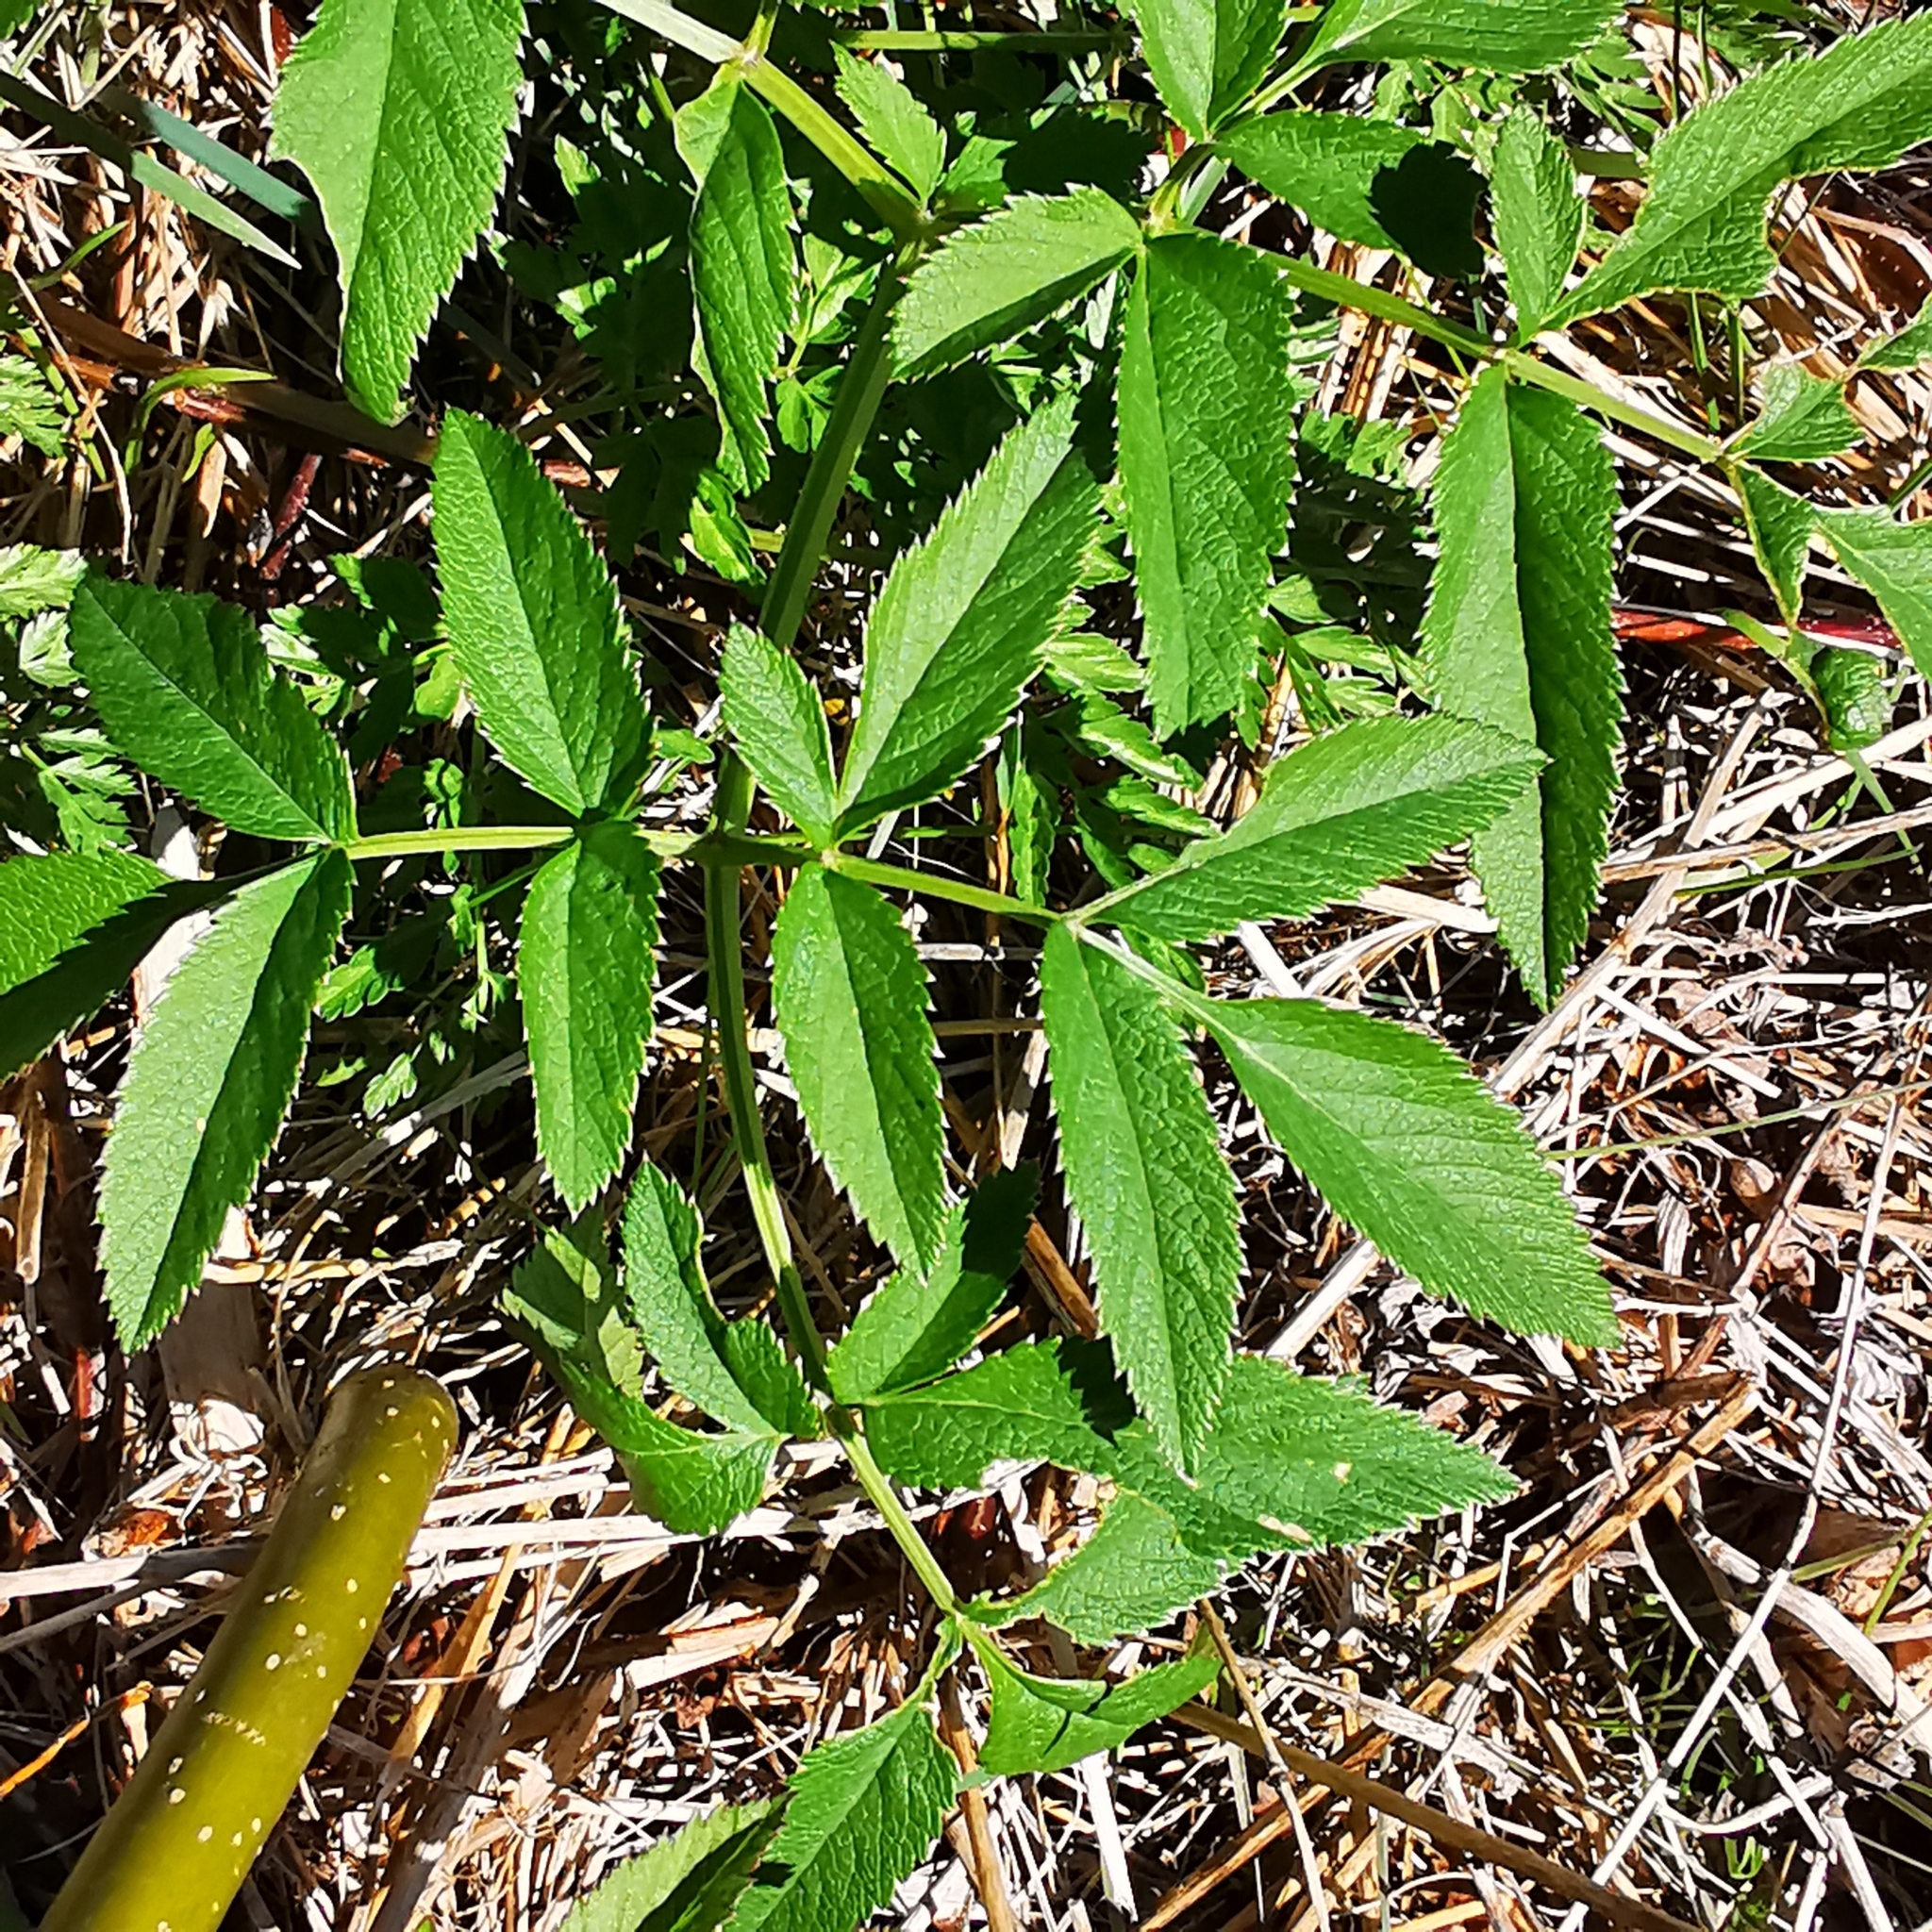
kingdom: Plantae
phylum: Tracheophyta
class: Magnoliopsida
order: Apiales
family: Apiaceae
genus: Angelica
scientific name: Angelica sylvestris
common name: Wild angelica
